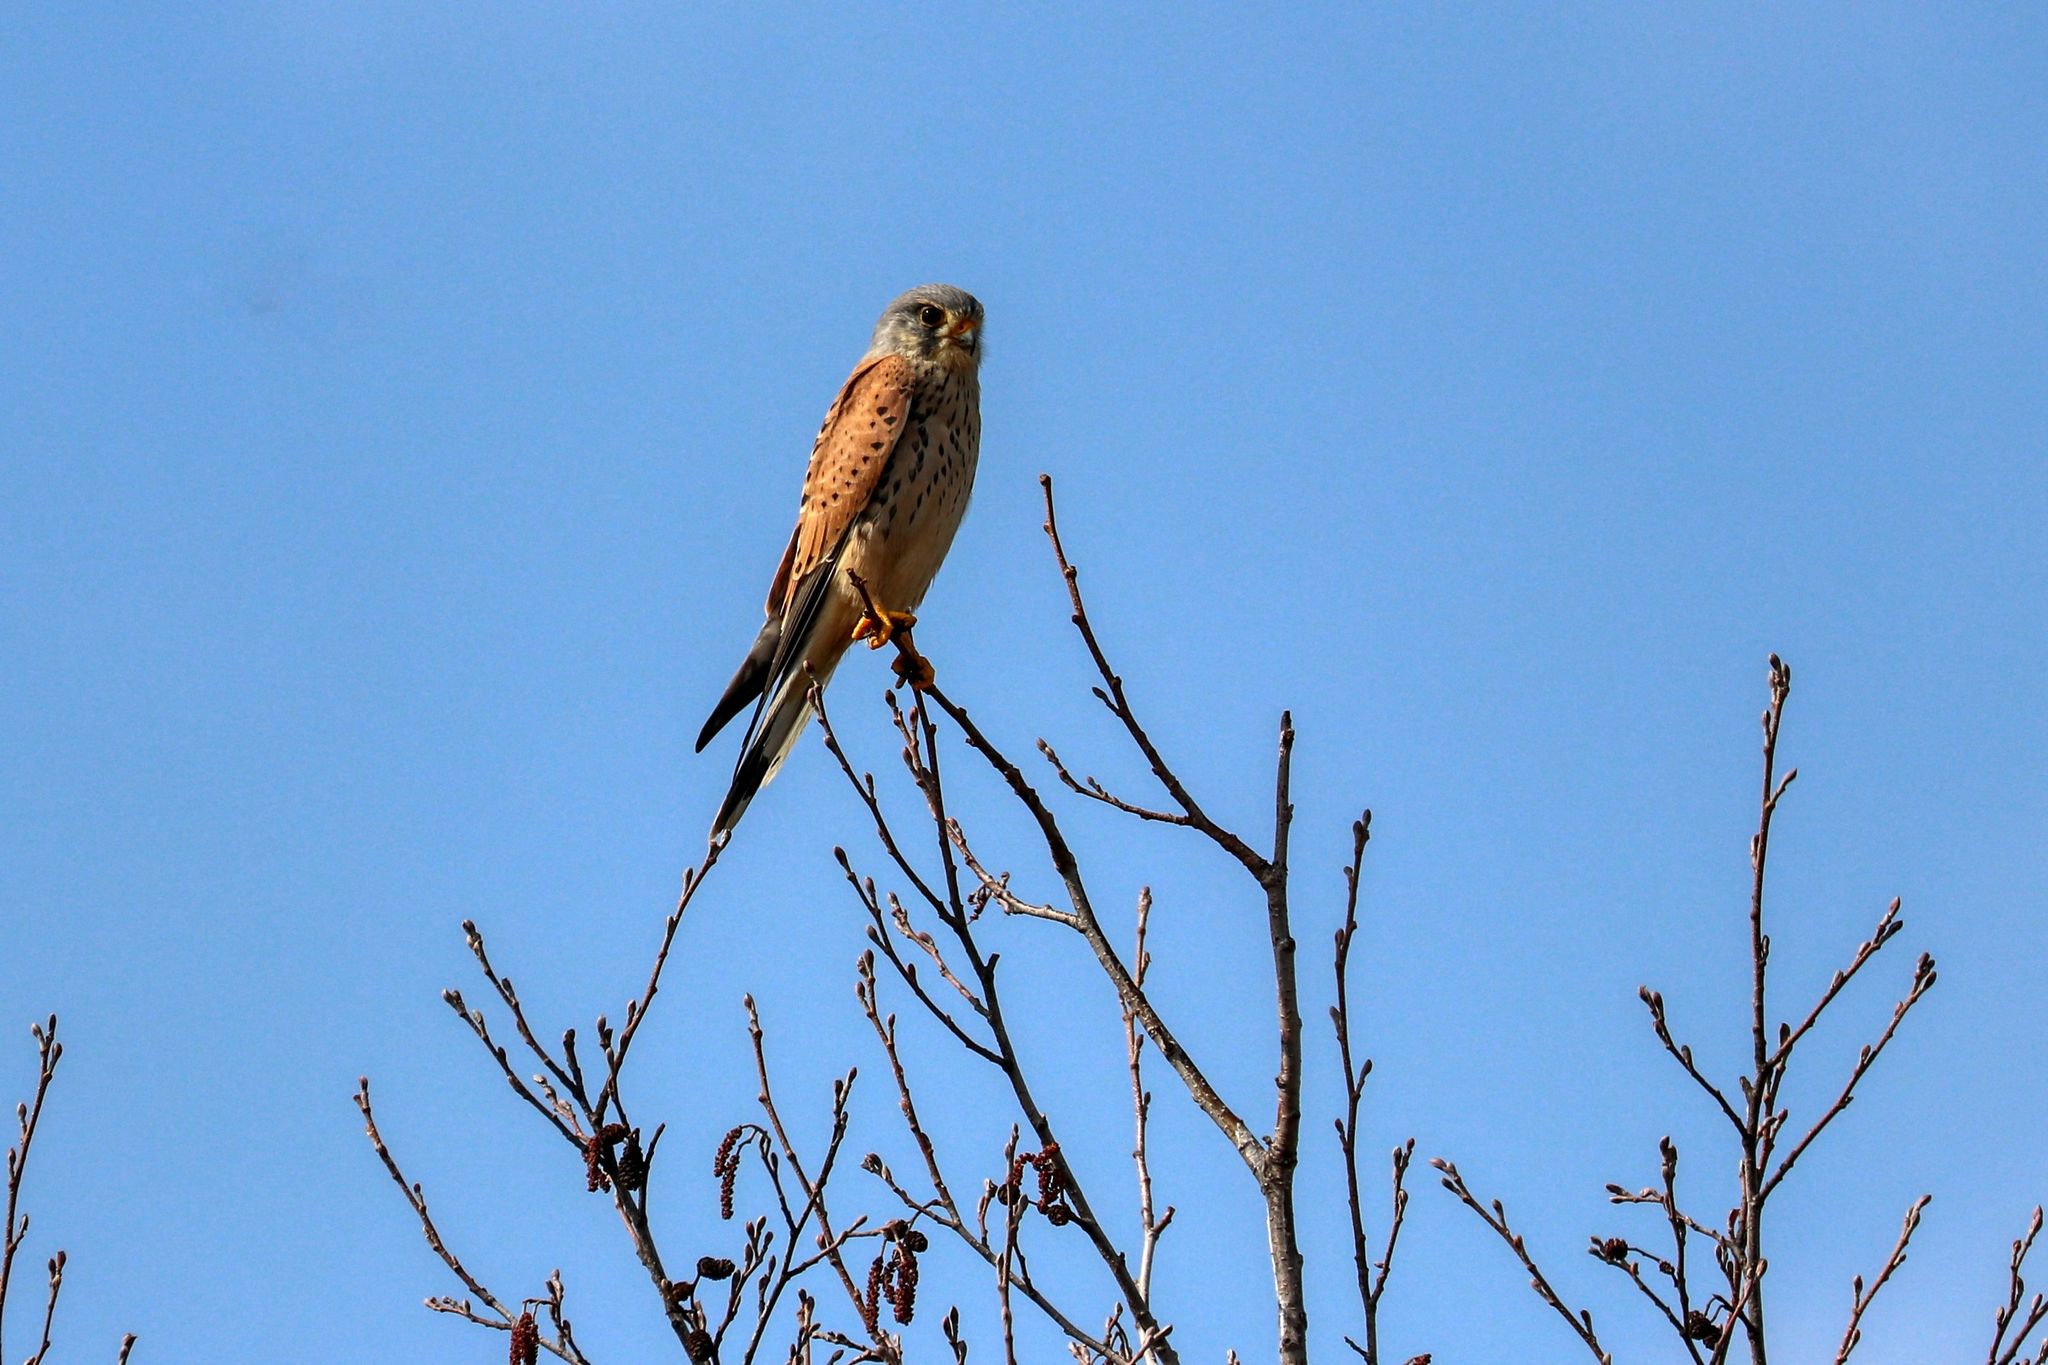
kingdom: Animalia
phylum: Chordata
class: Aves
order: Falconiformes
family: Falconidae
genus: Falco
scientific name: Falco tinnunculus
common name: Common kestrel
